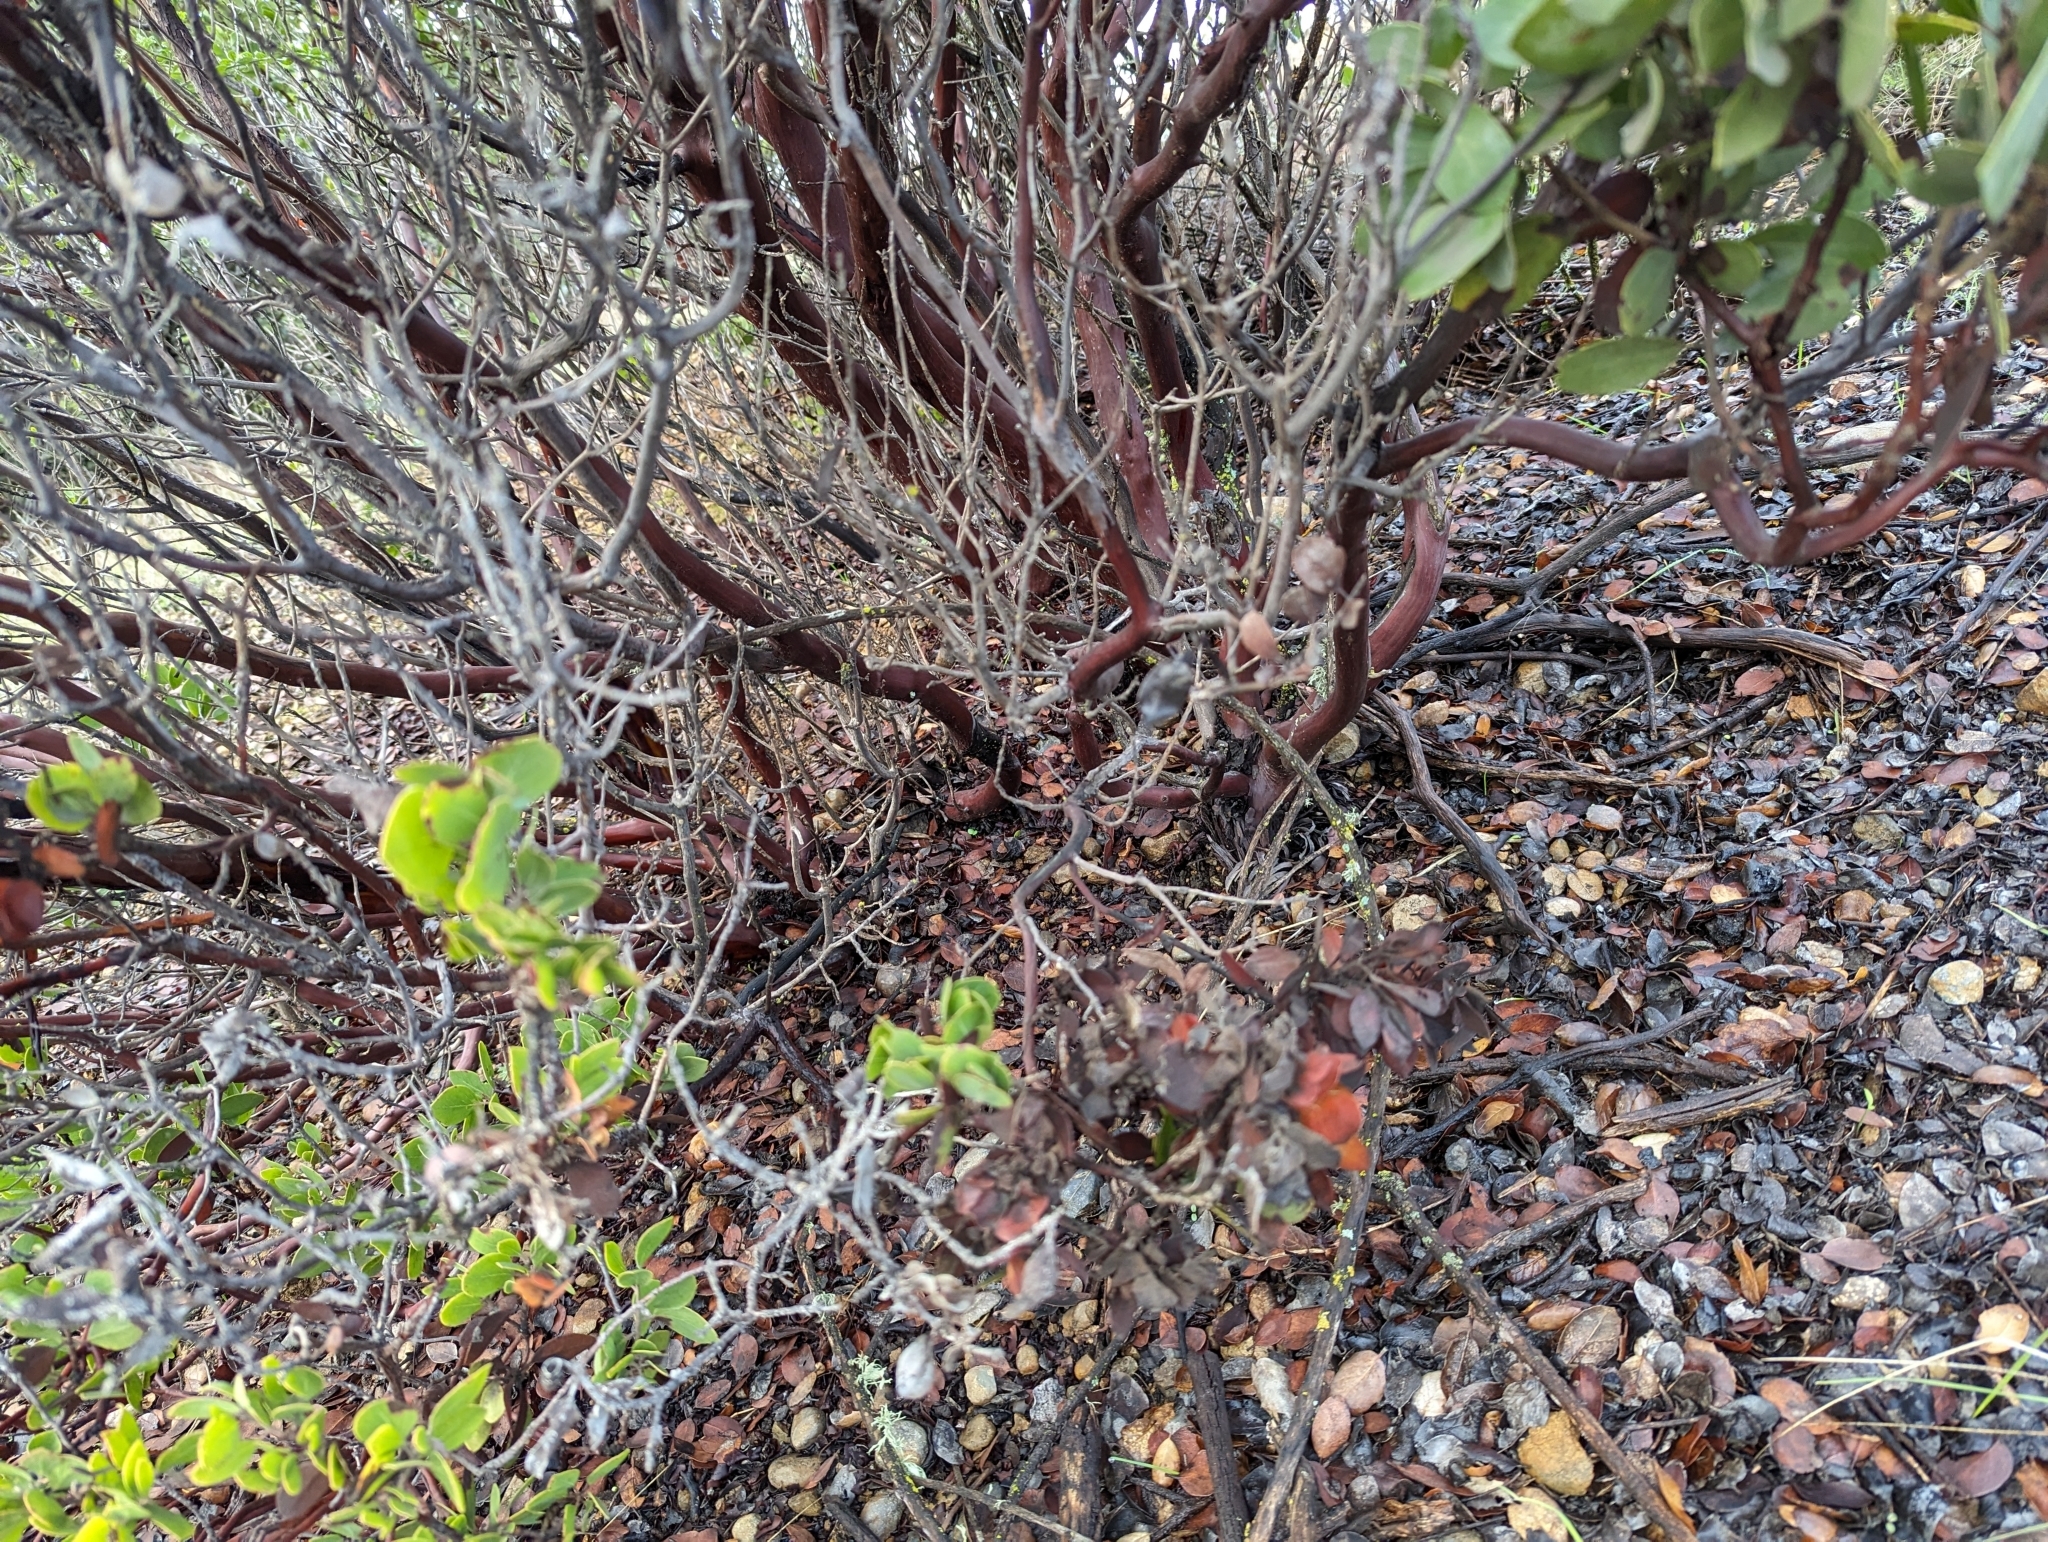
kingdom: Plantae
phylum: Tracheophyta
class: Magnoliopsida
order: Ericales
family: Ericaceae
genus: Arctostaphylos
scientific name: Arctostaphylos manzanita
